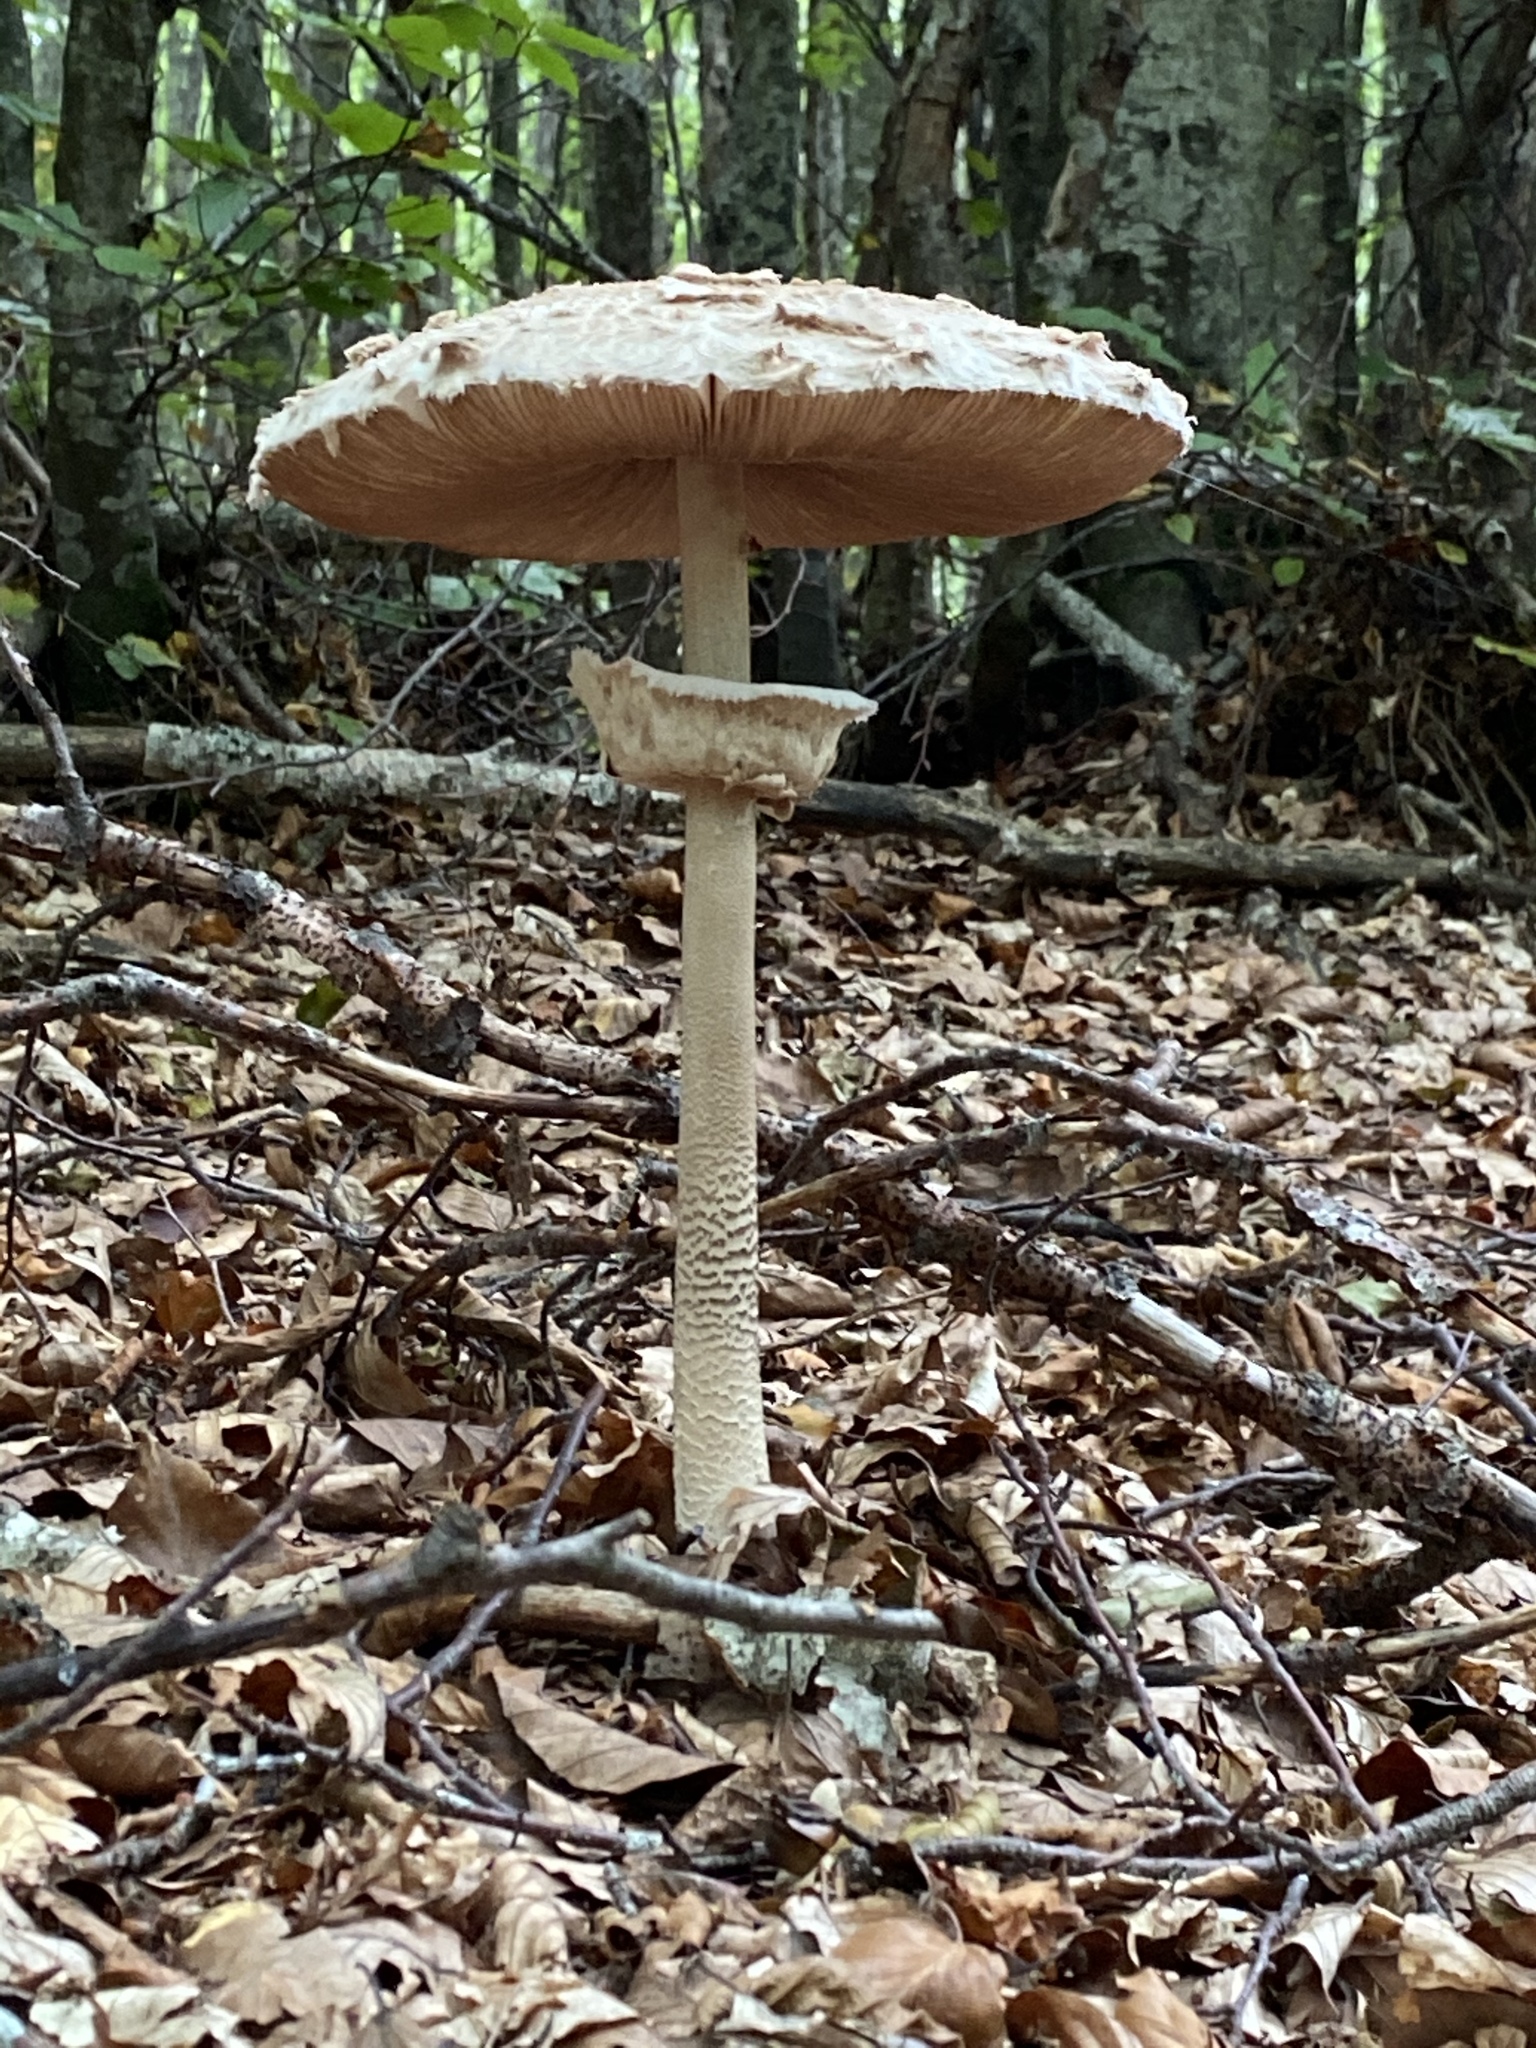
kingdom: Fungi
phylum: Basidiomycota
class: Agaricomycetes
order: Agaricales
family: Agaricaceae
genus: Macrolepiota
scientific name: Macrolepiota procera
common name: Parasol
